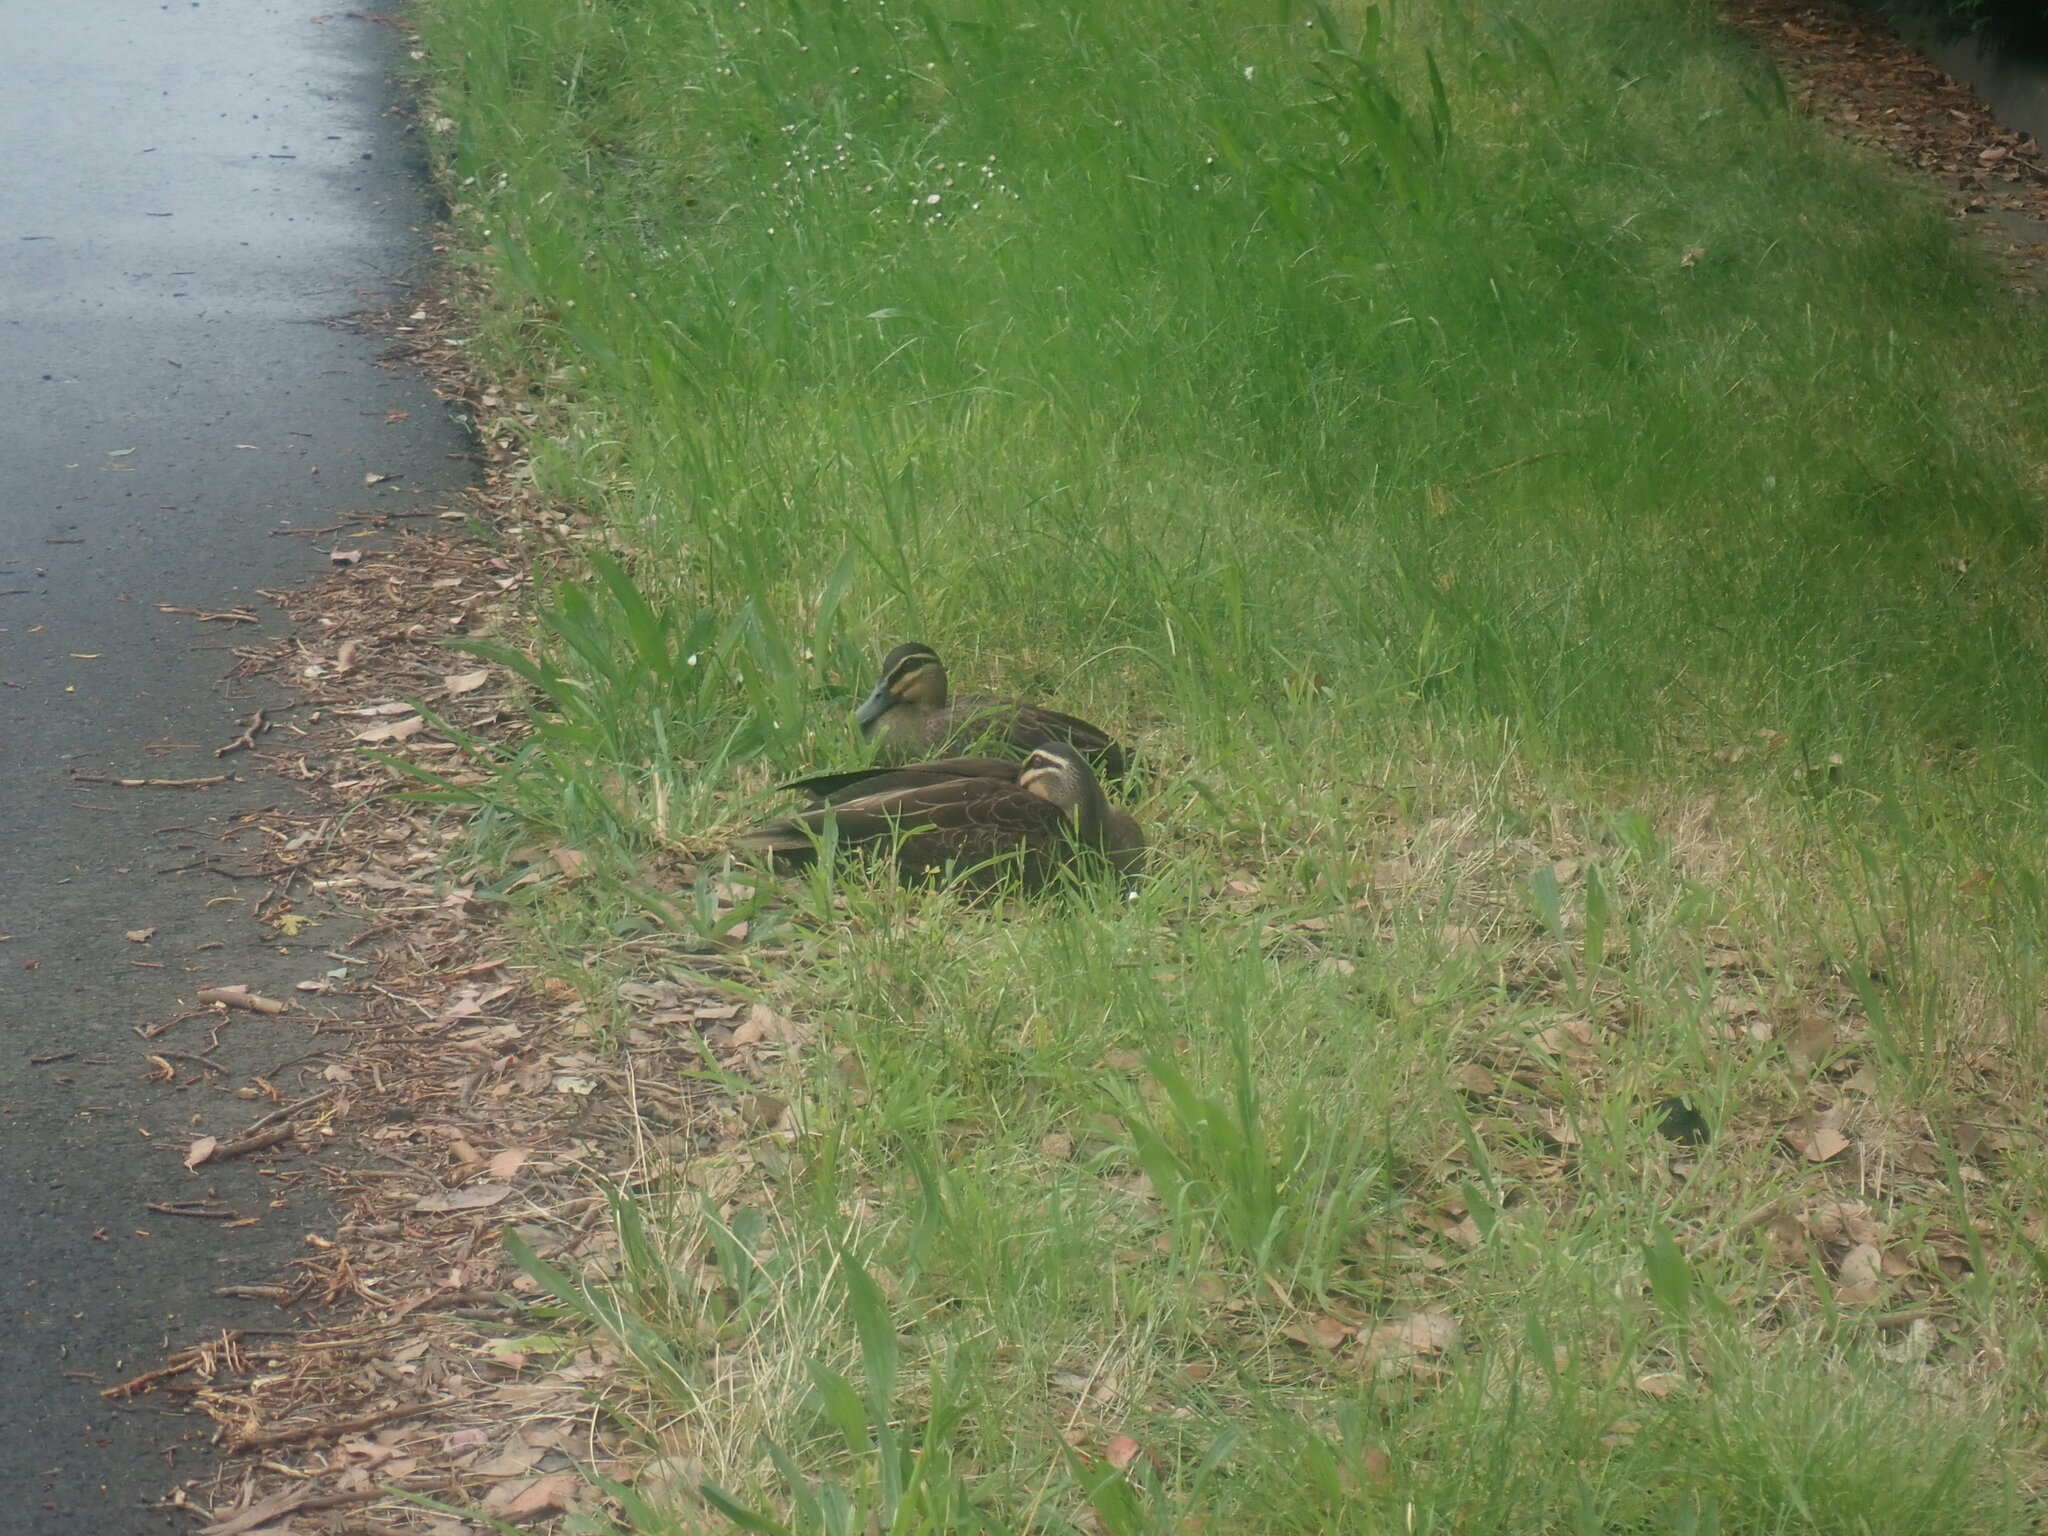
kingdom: Animalia
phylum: Chordata
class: Aves
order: Anseriformes
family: Anatidae
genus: Anas
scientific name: Anas superciliosa
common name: Pacific black duck
